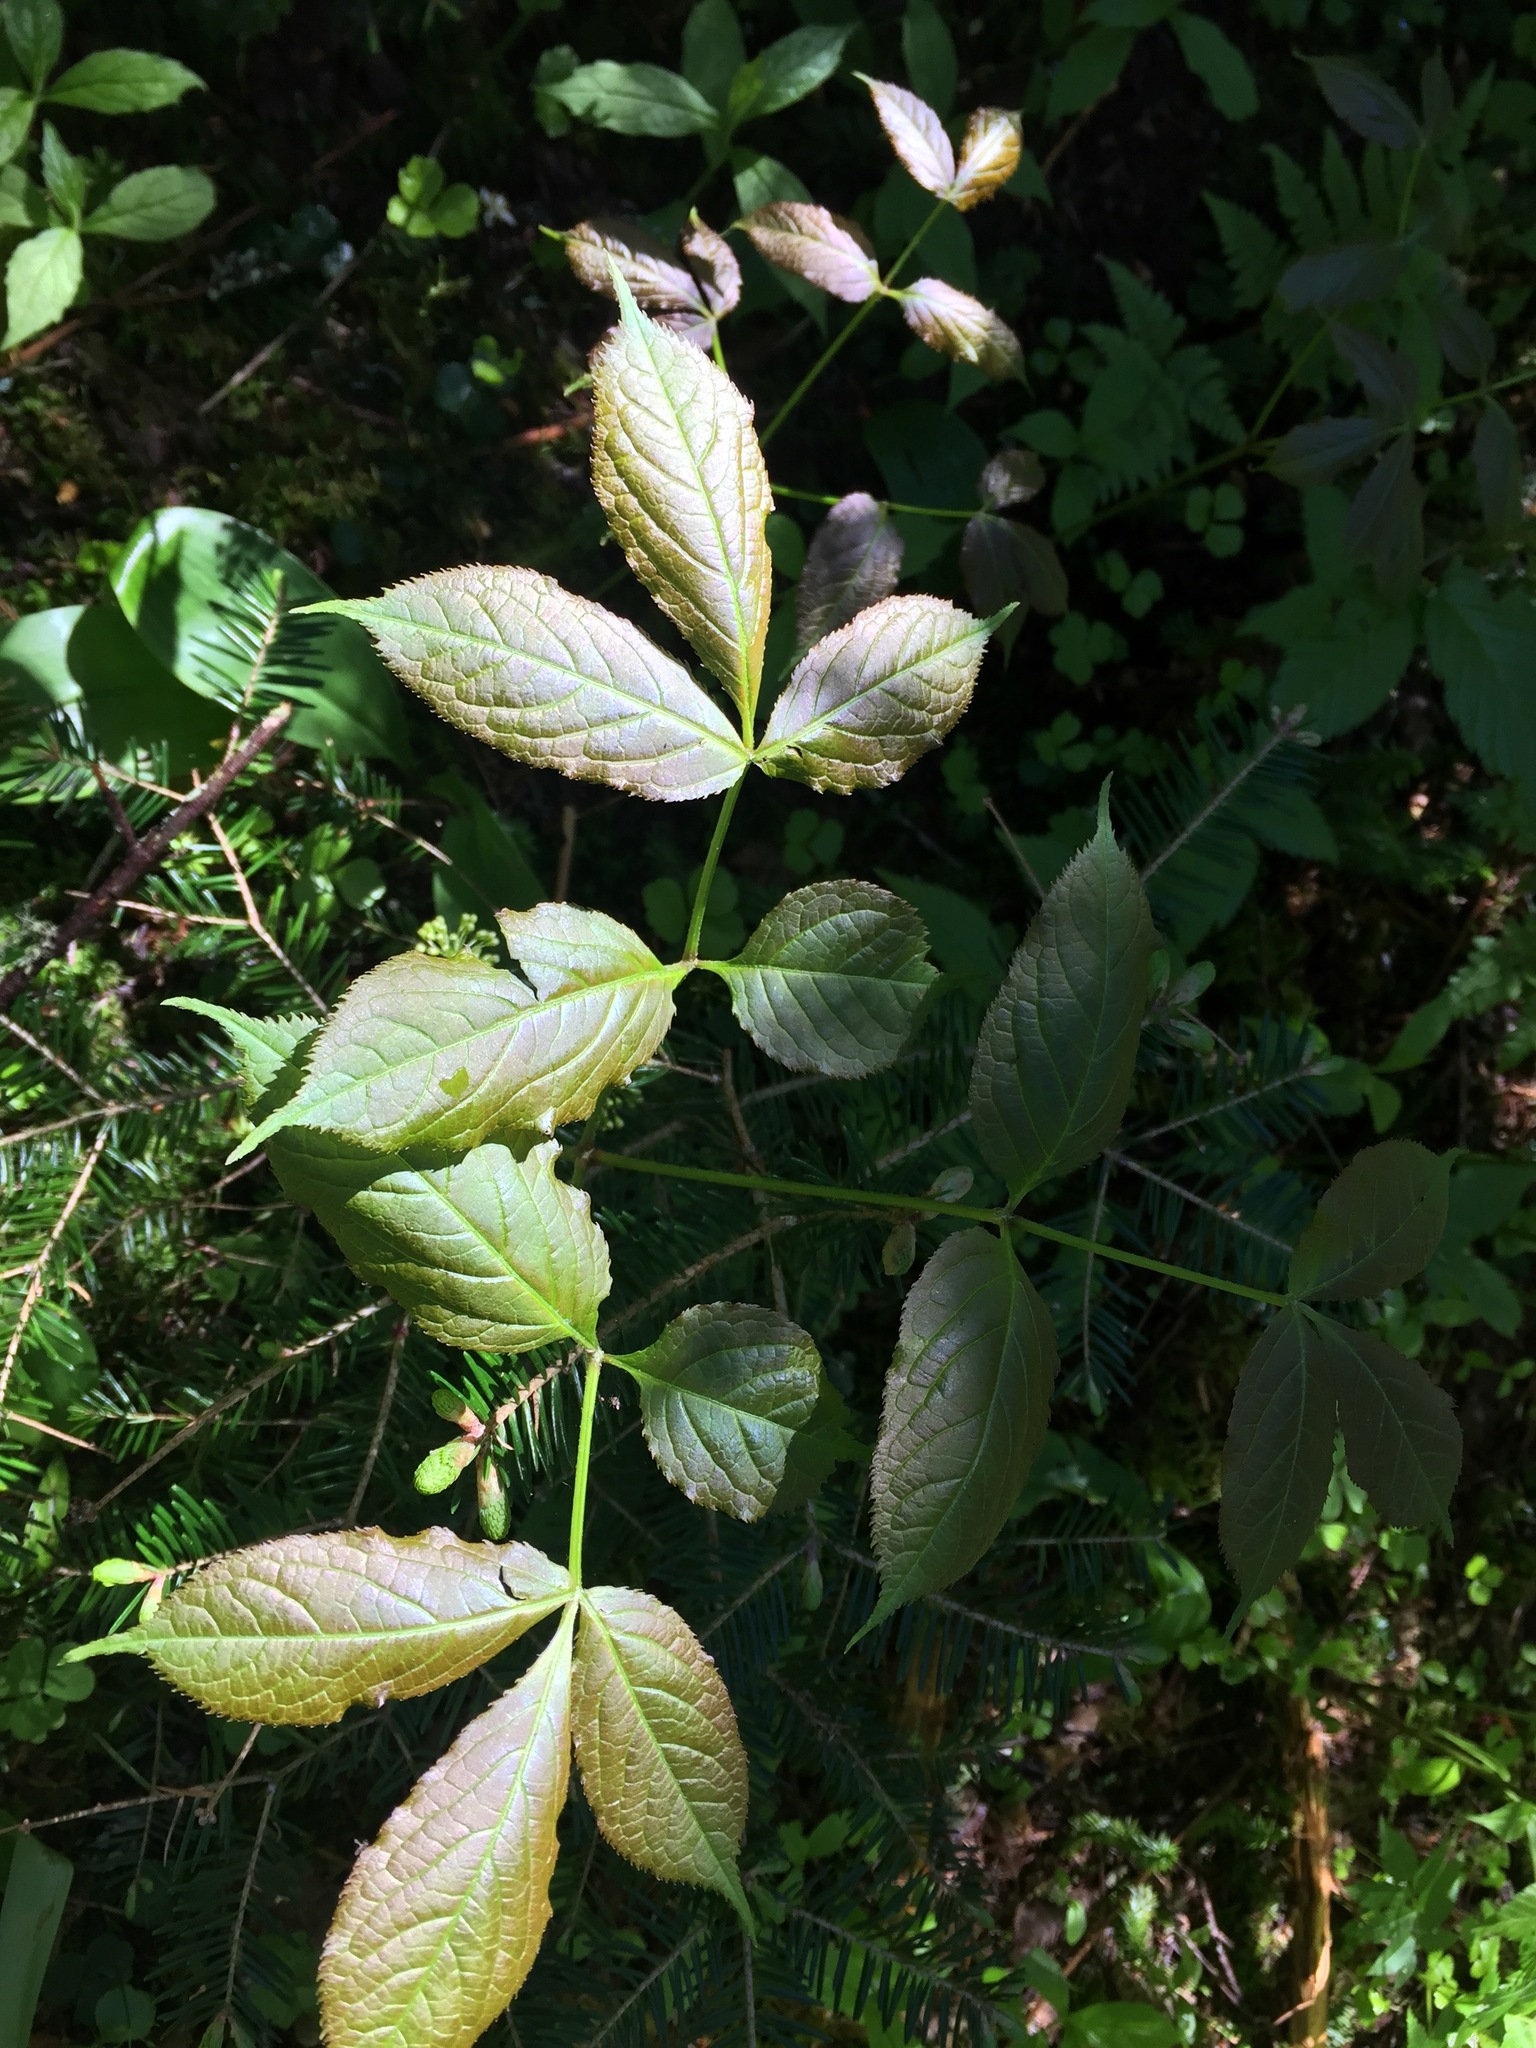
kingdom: Plantae
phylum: Tracheophyta
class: Magnoliopsida
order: Apiales
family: Araliaceae
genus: Aralia
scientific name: Aralia nudicaulis
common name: Wild sarsaparilla
